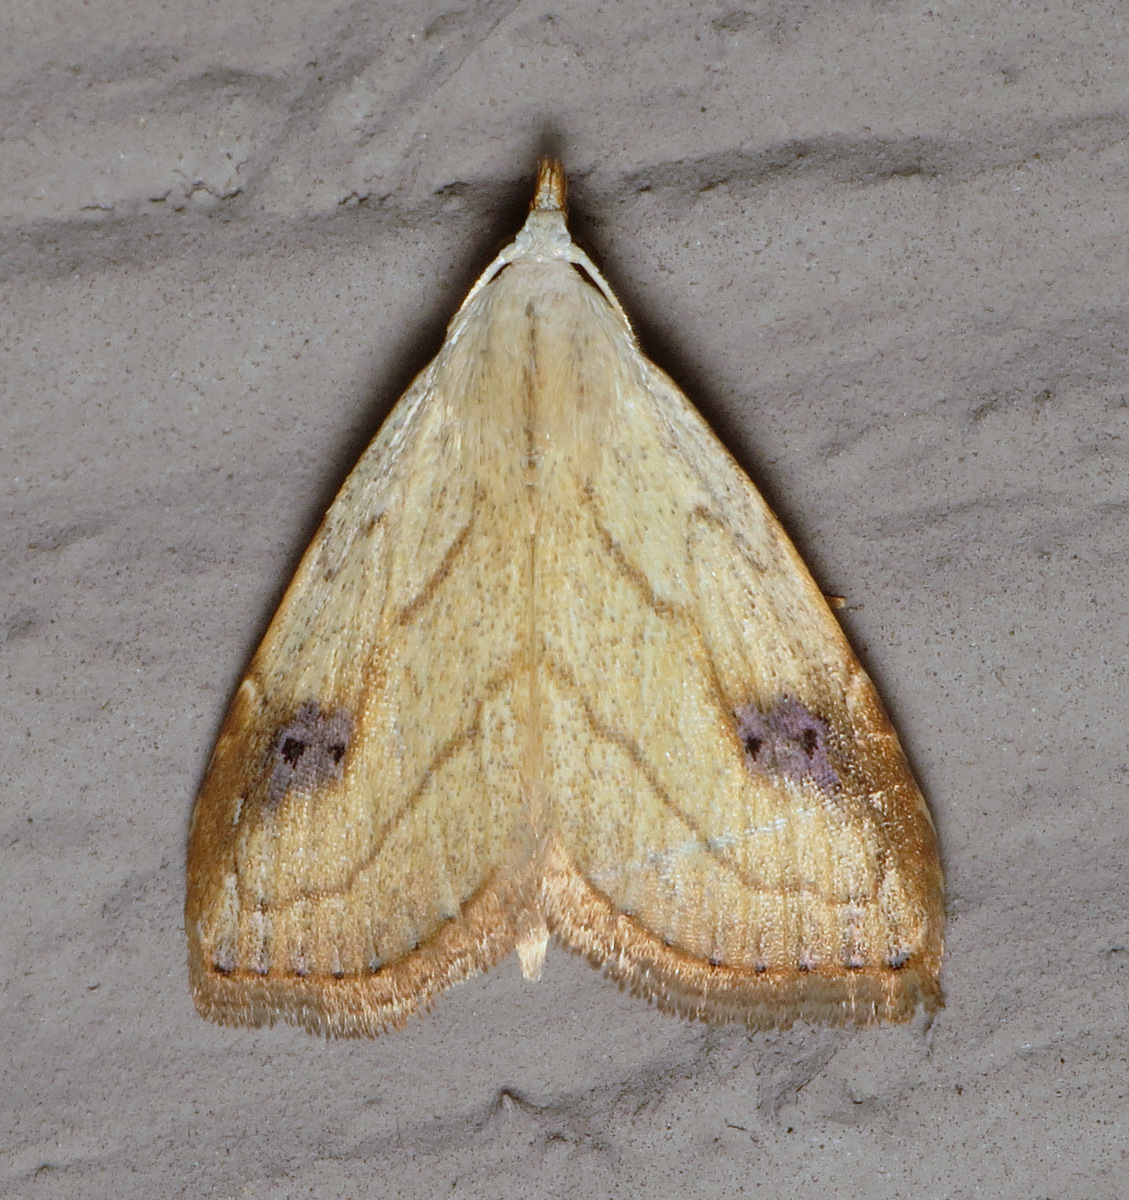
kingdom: Animalia
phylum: Arthropoda
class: Insecta
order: Lepidoptera
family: Erebidae
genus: Rivula
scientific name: Rivula propinqualis
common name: Spotted grass moth
